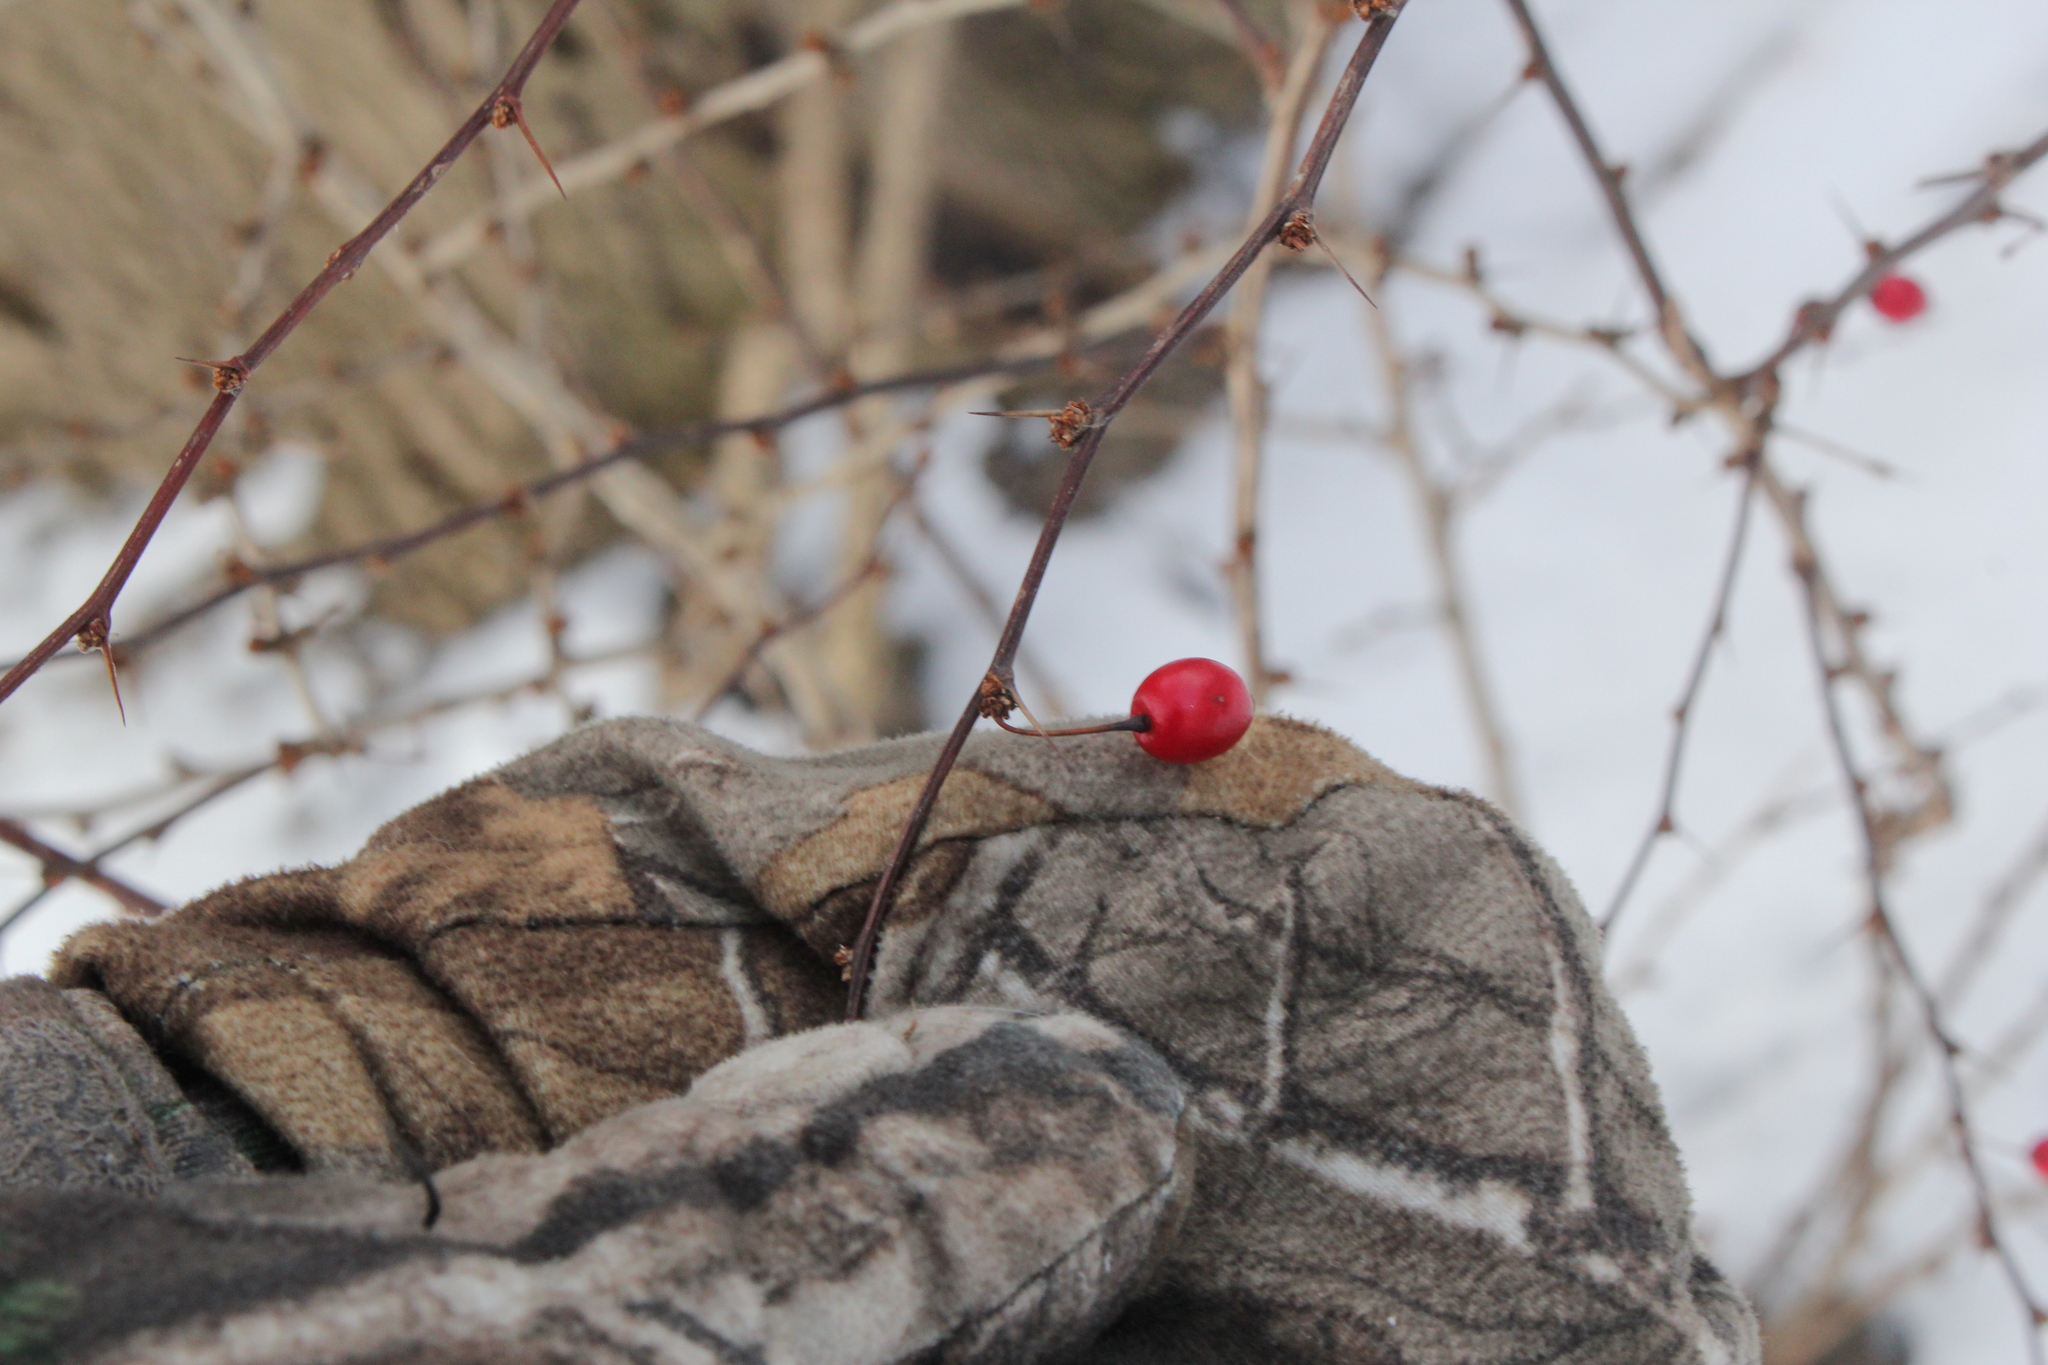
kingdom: Plantae
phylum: Tracheophyta
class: Magnoliopsida
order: Ranunculales
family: Berberidaceae
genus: Berberis
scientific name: Berberis thunbergii
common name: Japanese barberry
